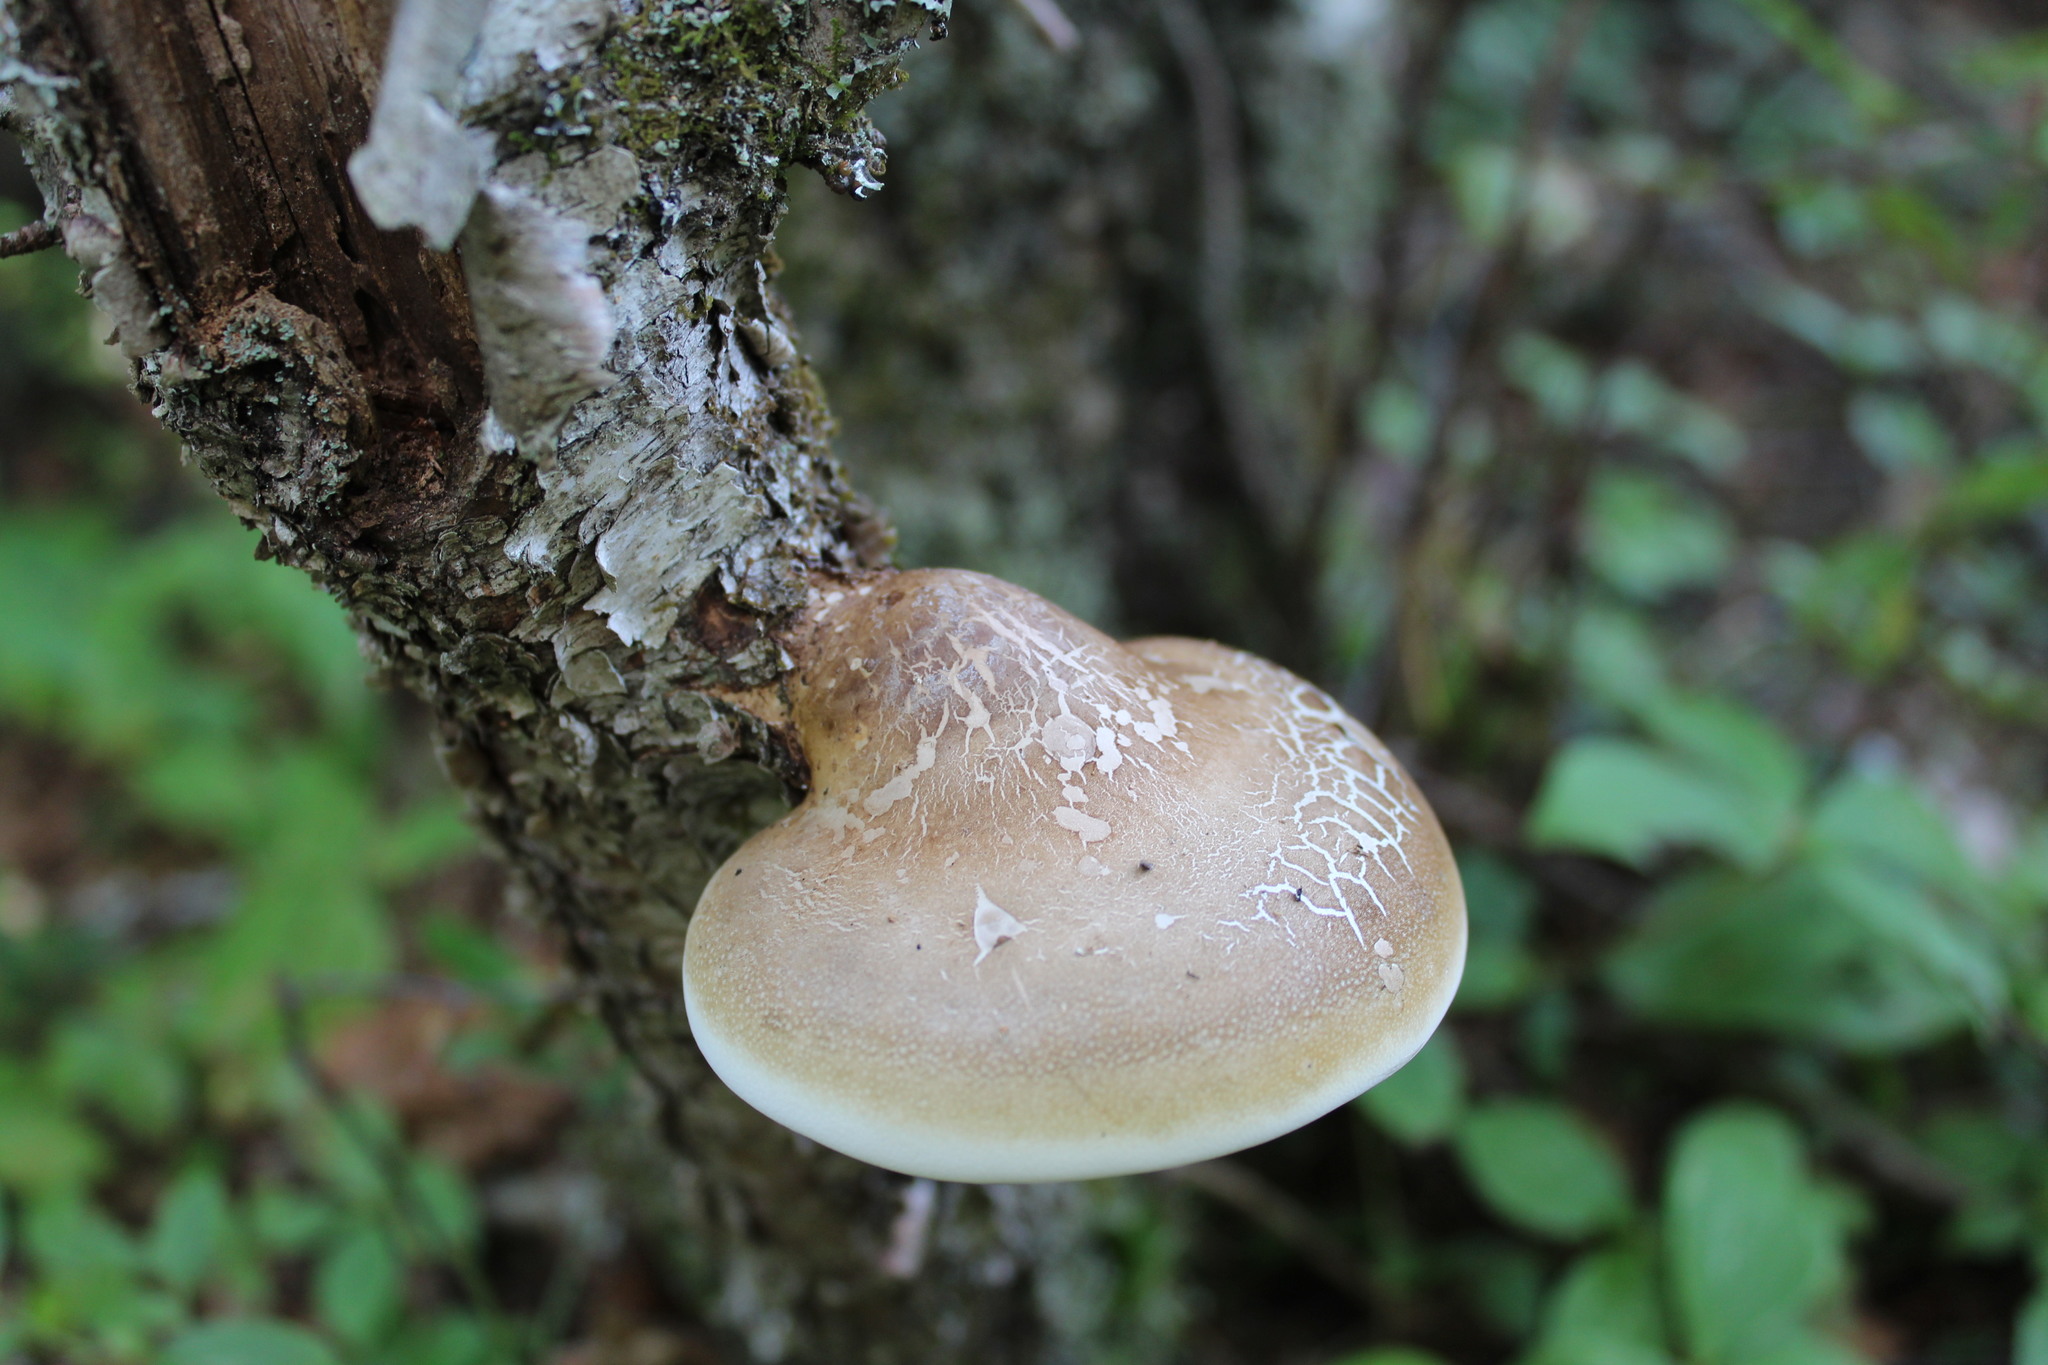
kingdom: Fungi
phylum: Basidiomycota
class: Agaricomycetes
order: Polyporales
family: Fomitopsidaceae
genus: Fomitopsis
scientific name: Fomitopsis betulina
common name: Birch polypore
